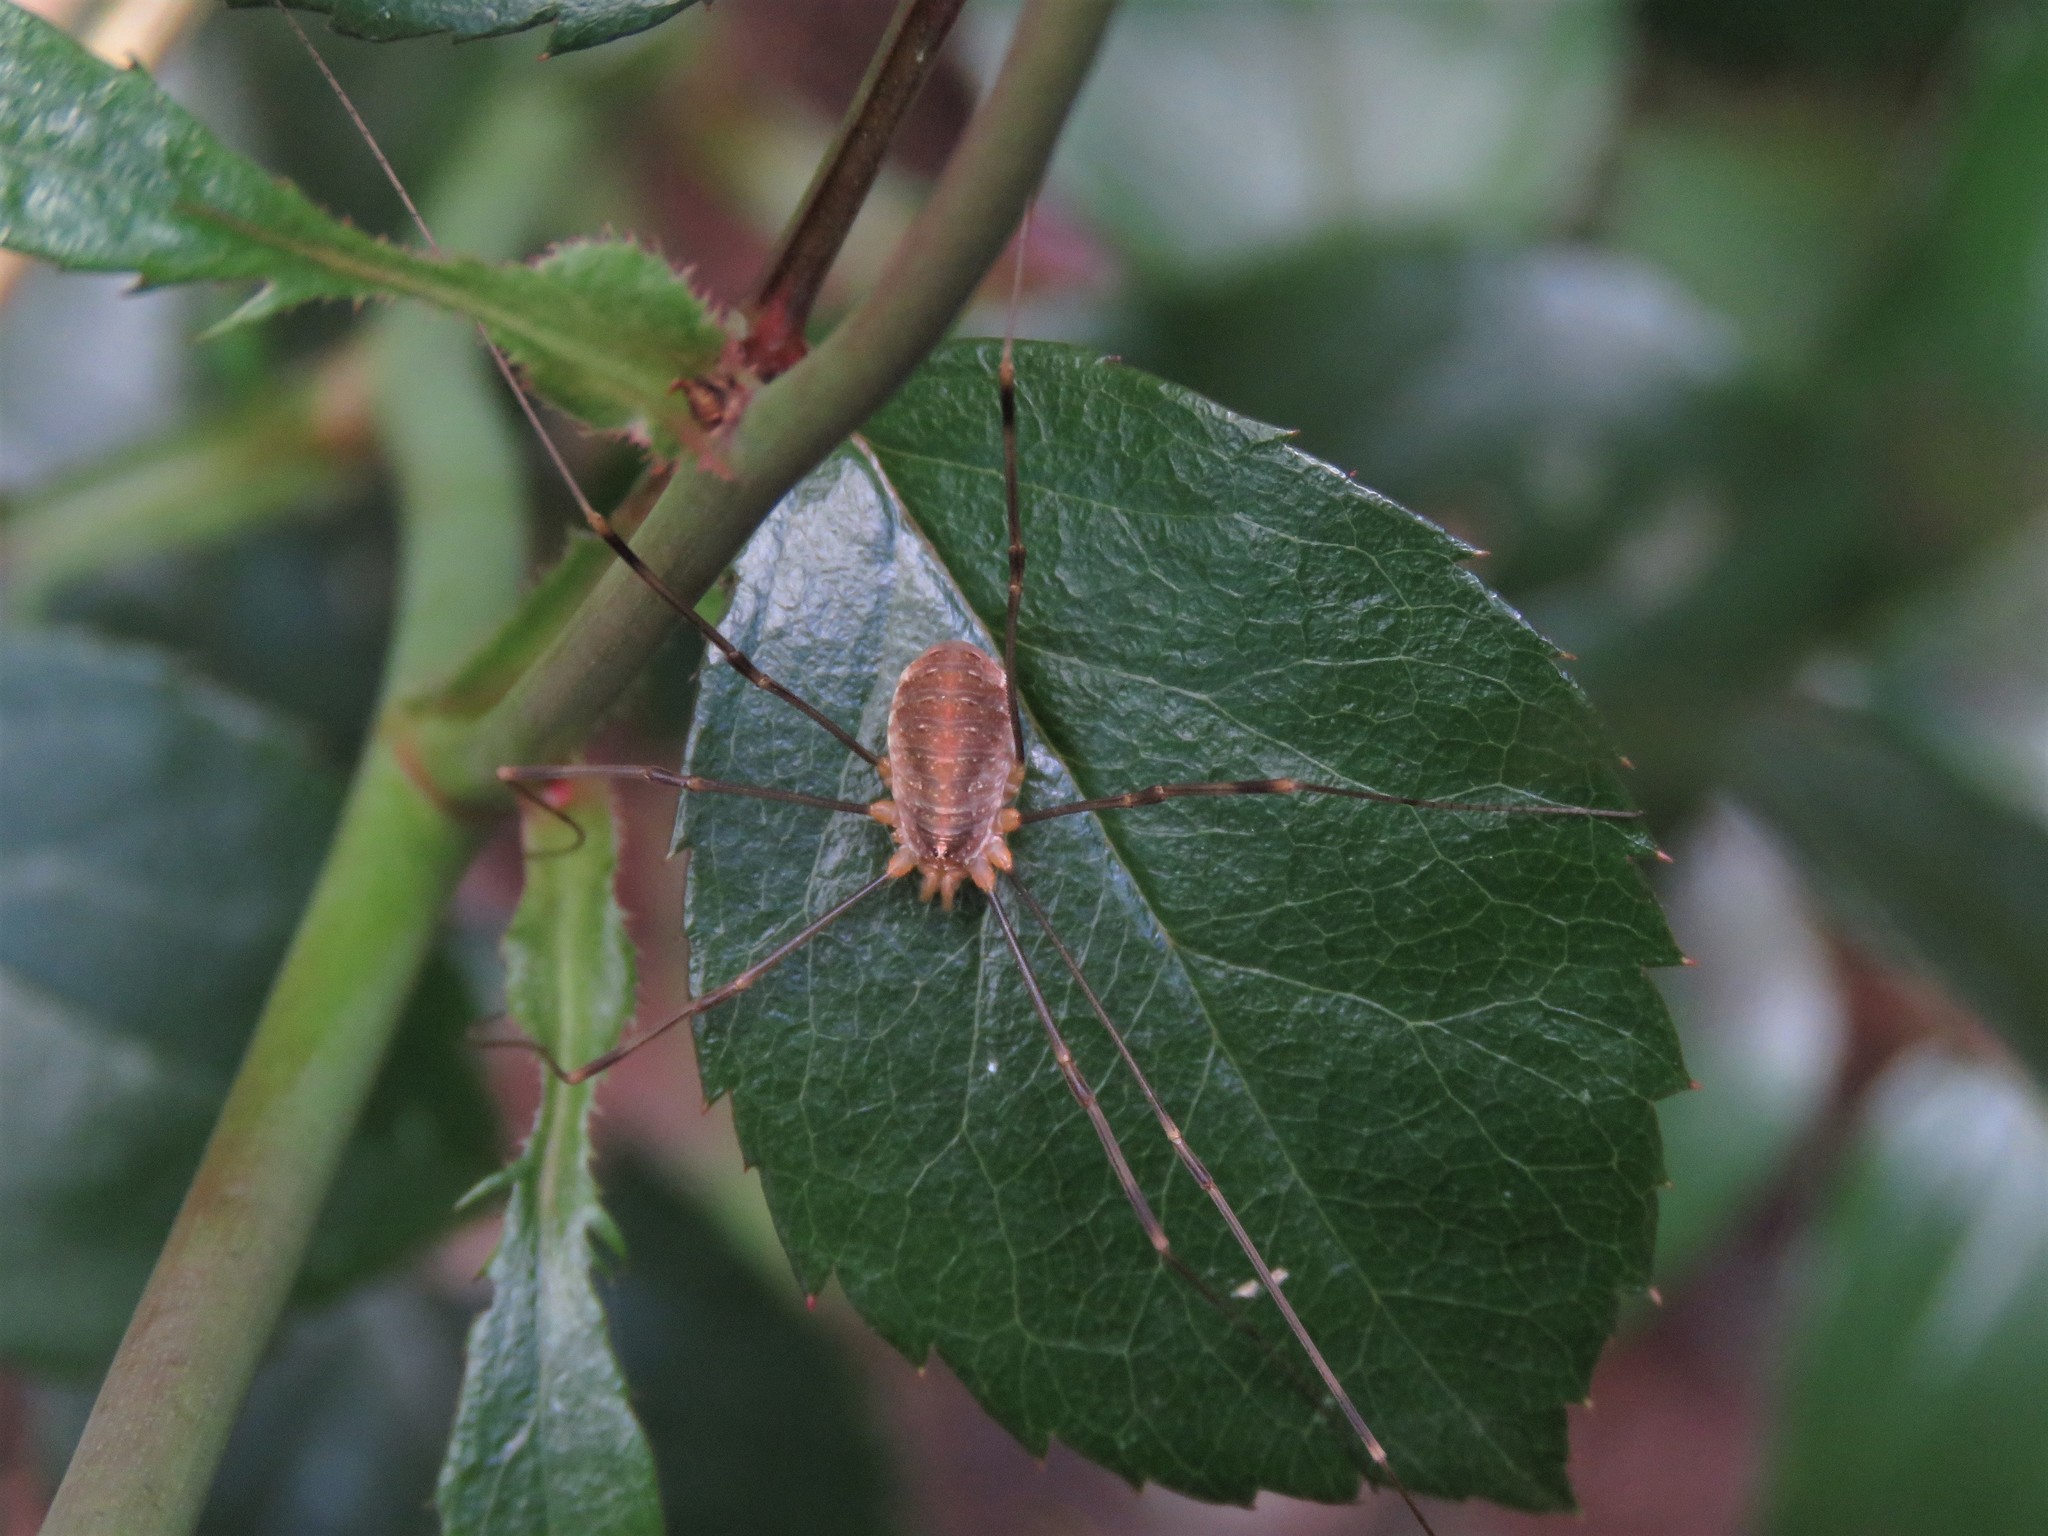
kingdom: Animalia
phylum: Arthropoda
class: Arachnida
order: Opiliones
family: Phalangiidae
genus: Opilio
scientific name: Opilio canestrinii
